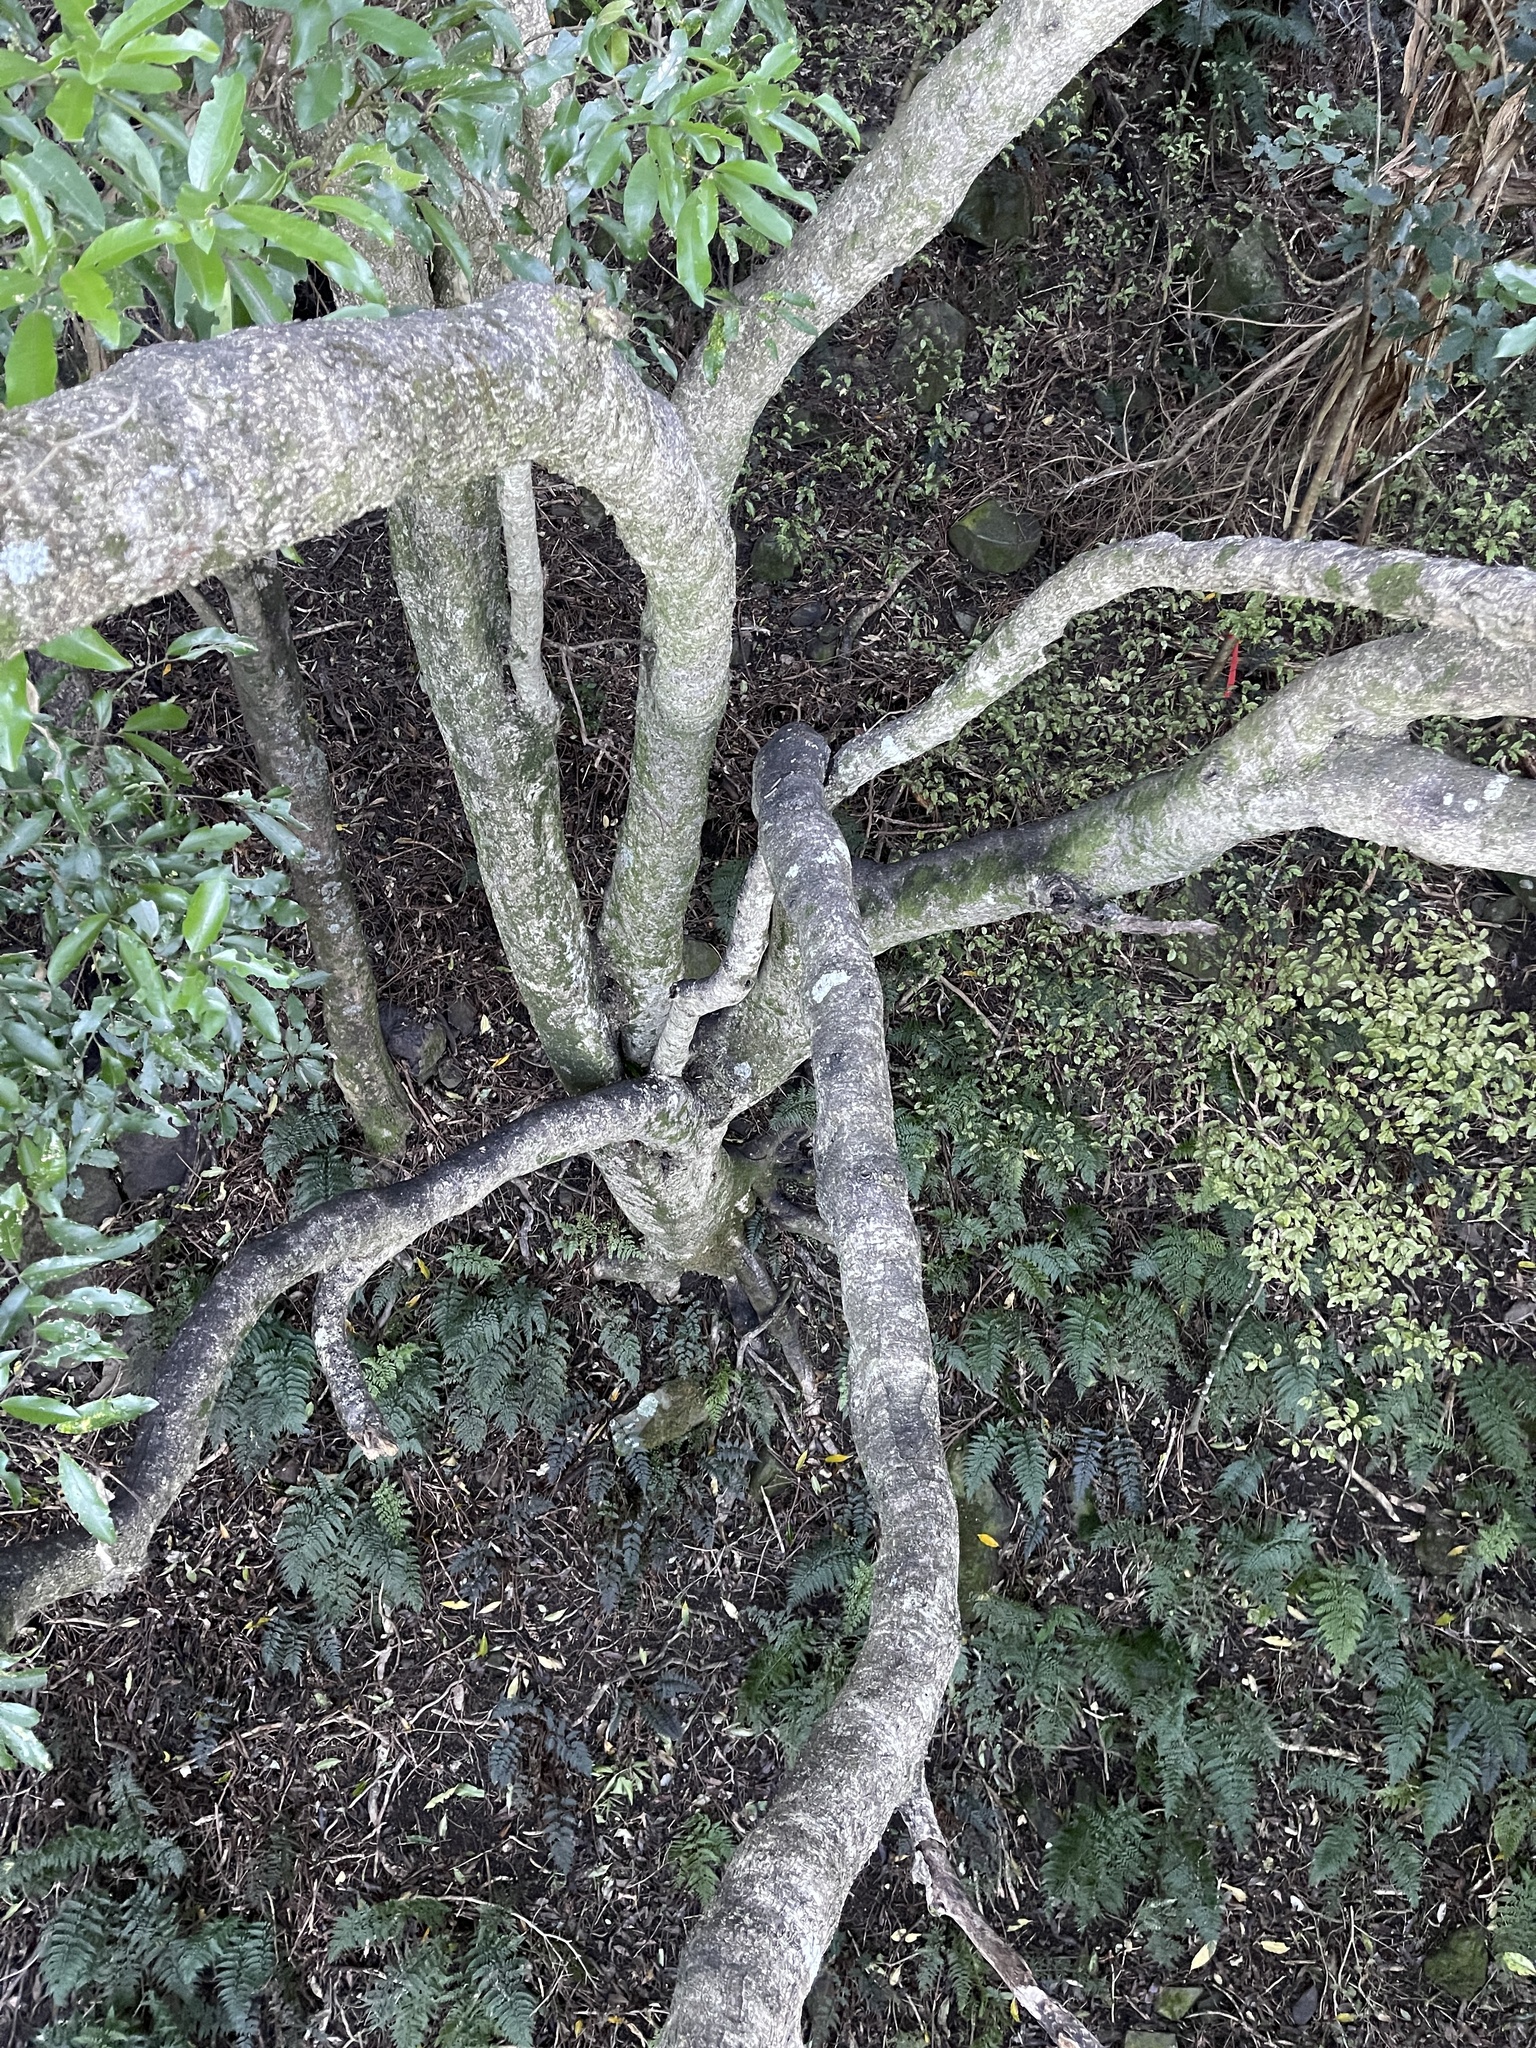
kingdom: Plantae
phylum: Tracheophyta
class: Magnoliopsida
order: Apiales
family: Pittosporaceae
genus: Pittosporum
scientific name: Pittosporum eugenioides
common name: Lemonwood
